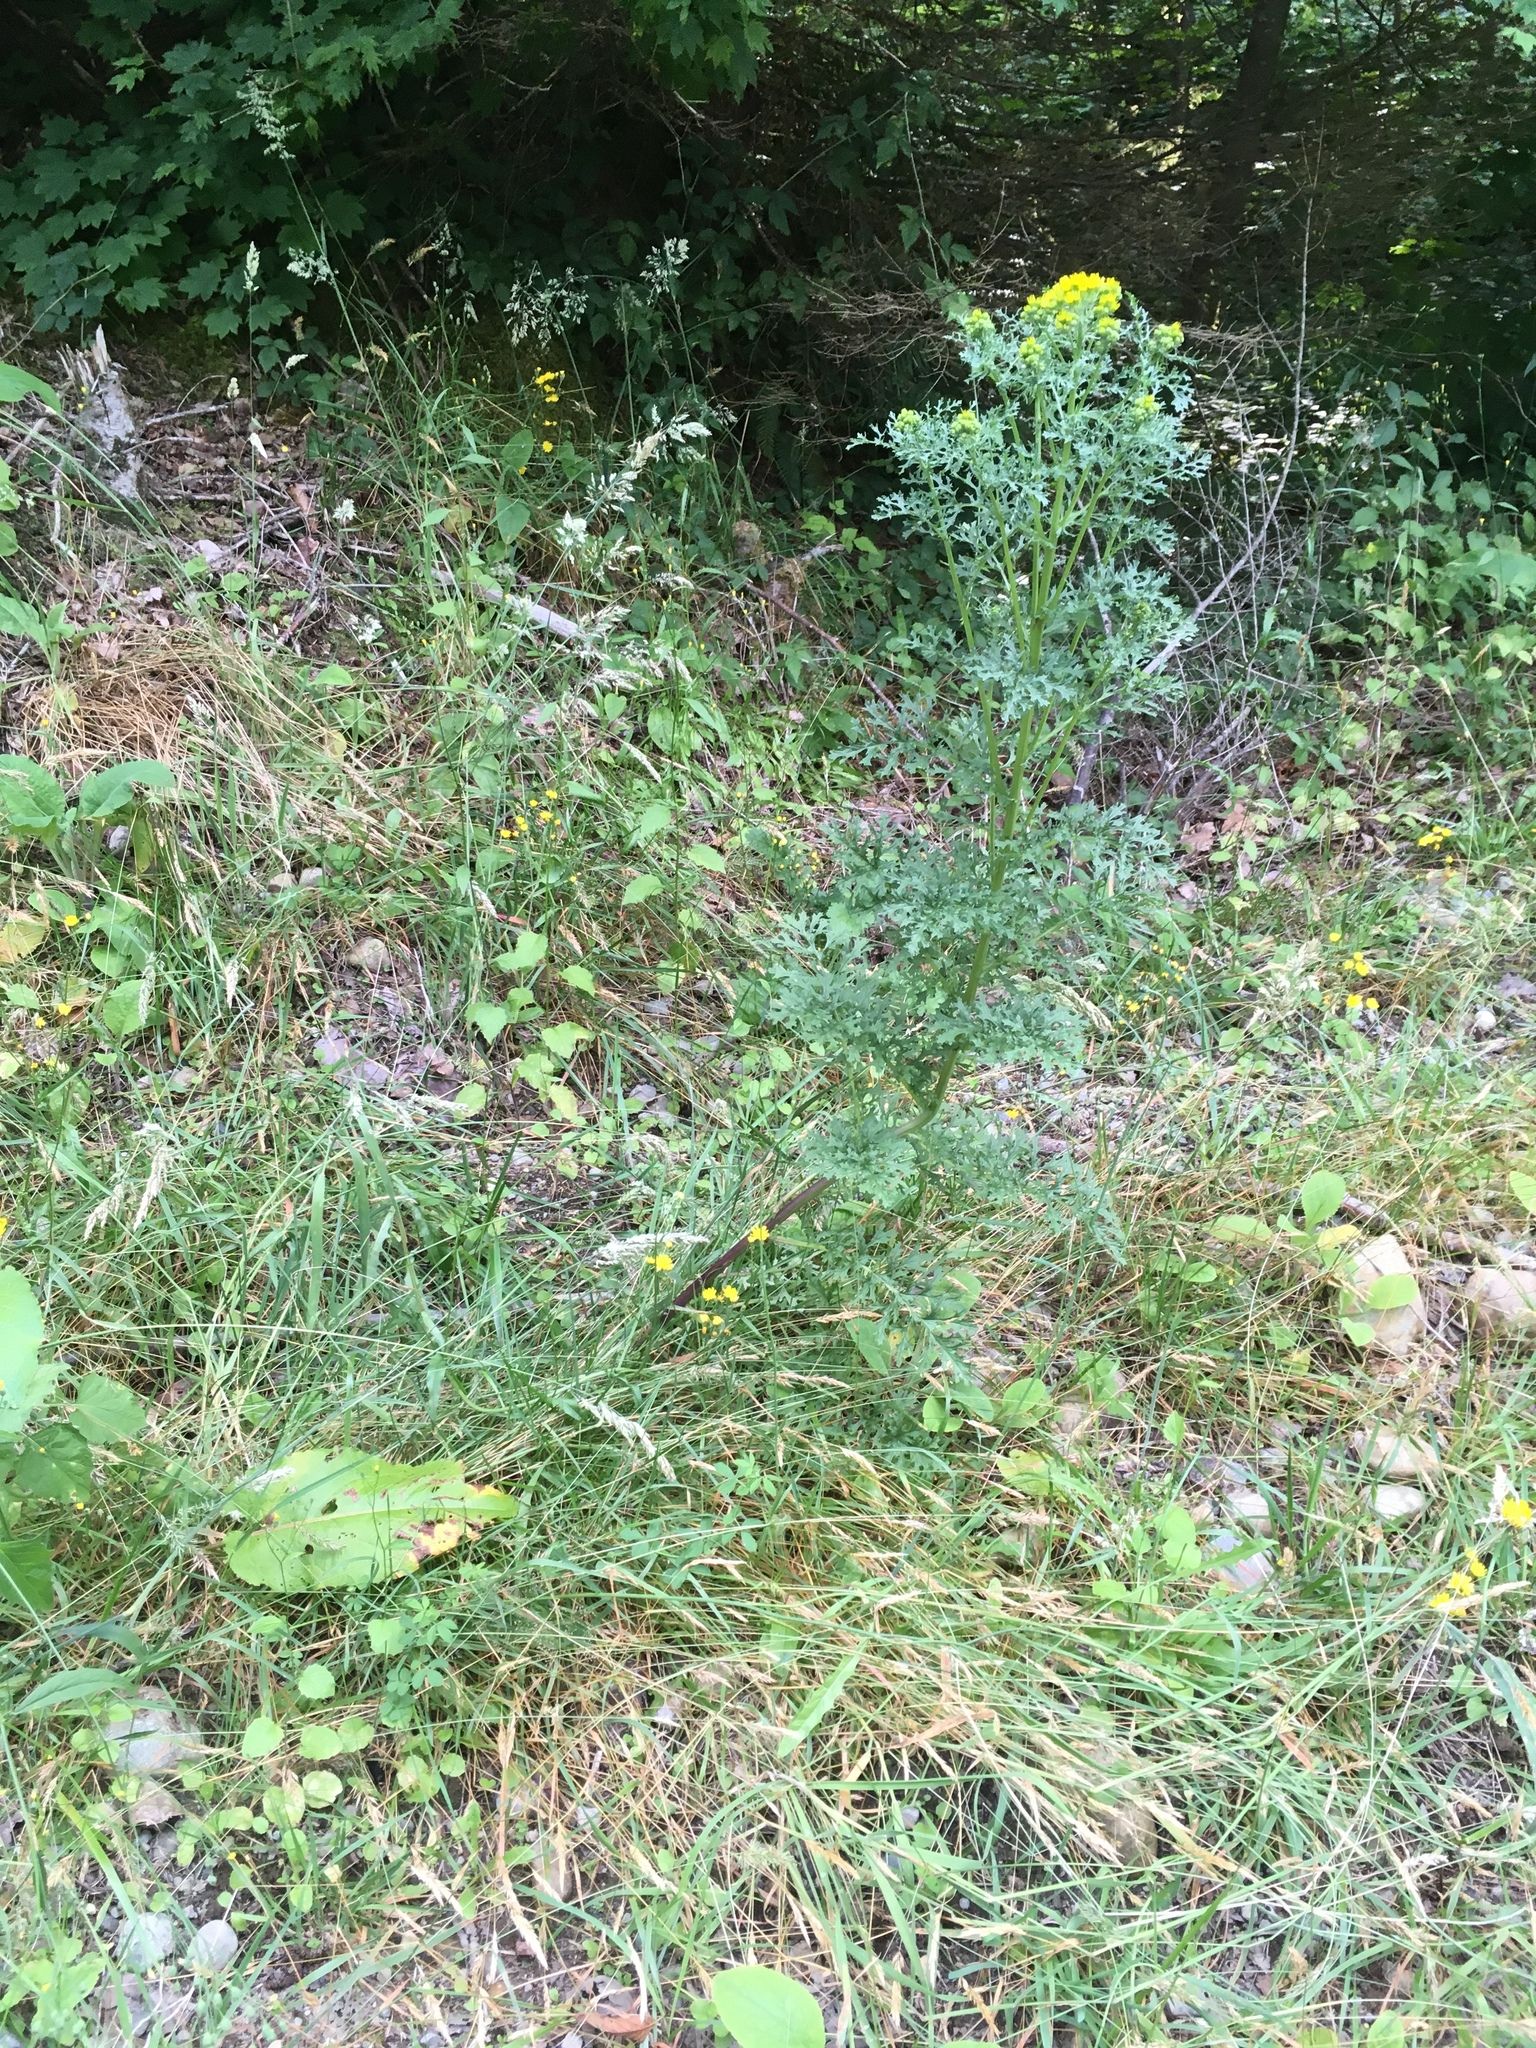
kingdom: Plantae
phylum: Tracheophyta
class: Magnoliopsida
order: Asterales
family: Asteraceae
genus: Jacobaea
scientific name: Jacobaea vulgaris
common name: Stinking willie
